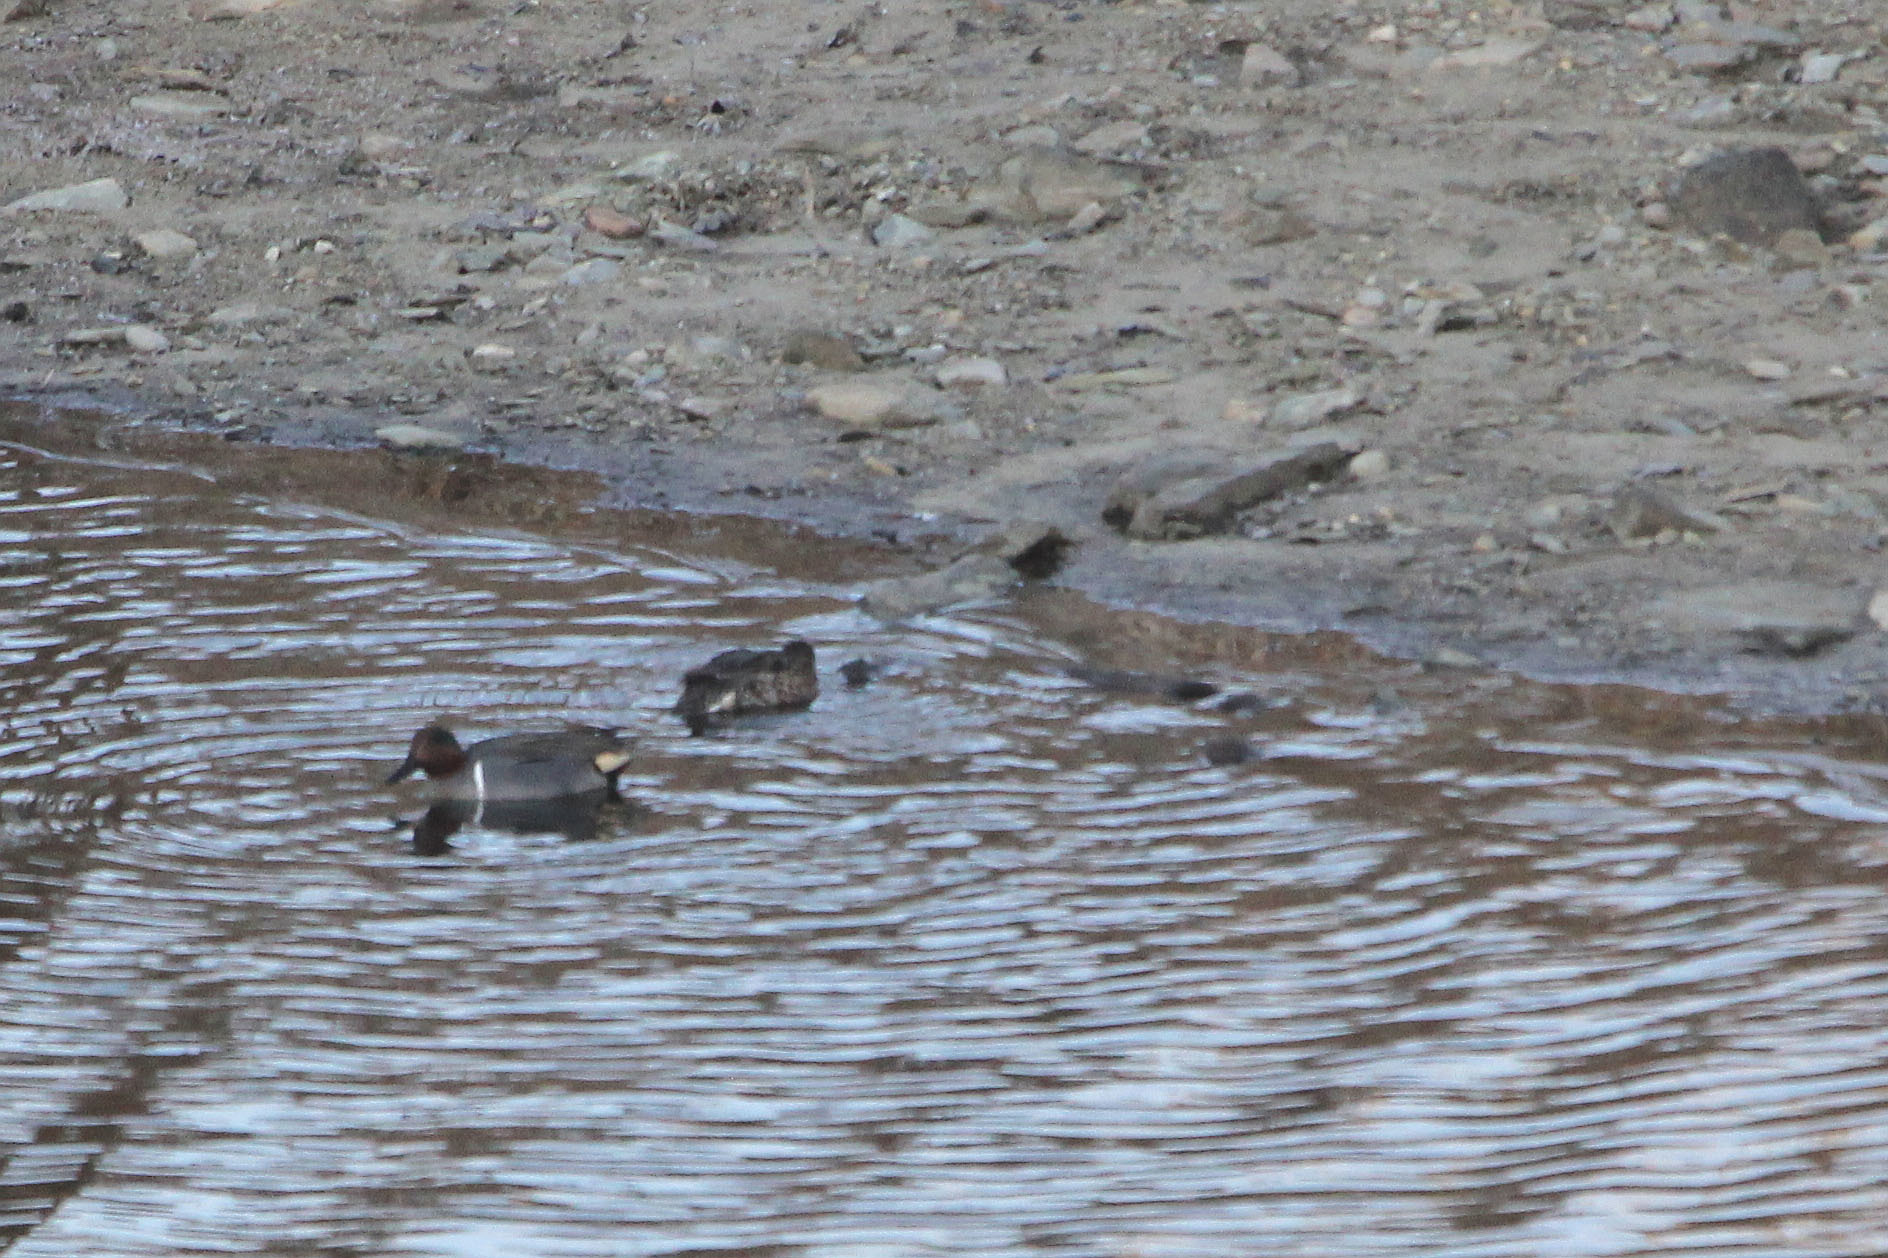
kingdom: Animalia
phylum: Chordata
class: Aves
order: Anseriformes
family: Anatidae
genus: Anas
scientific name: Anas carolinensis
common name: Green-winged teal
